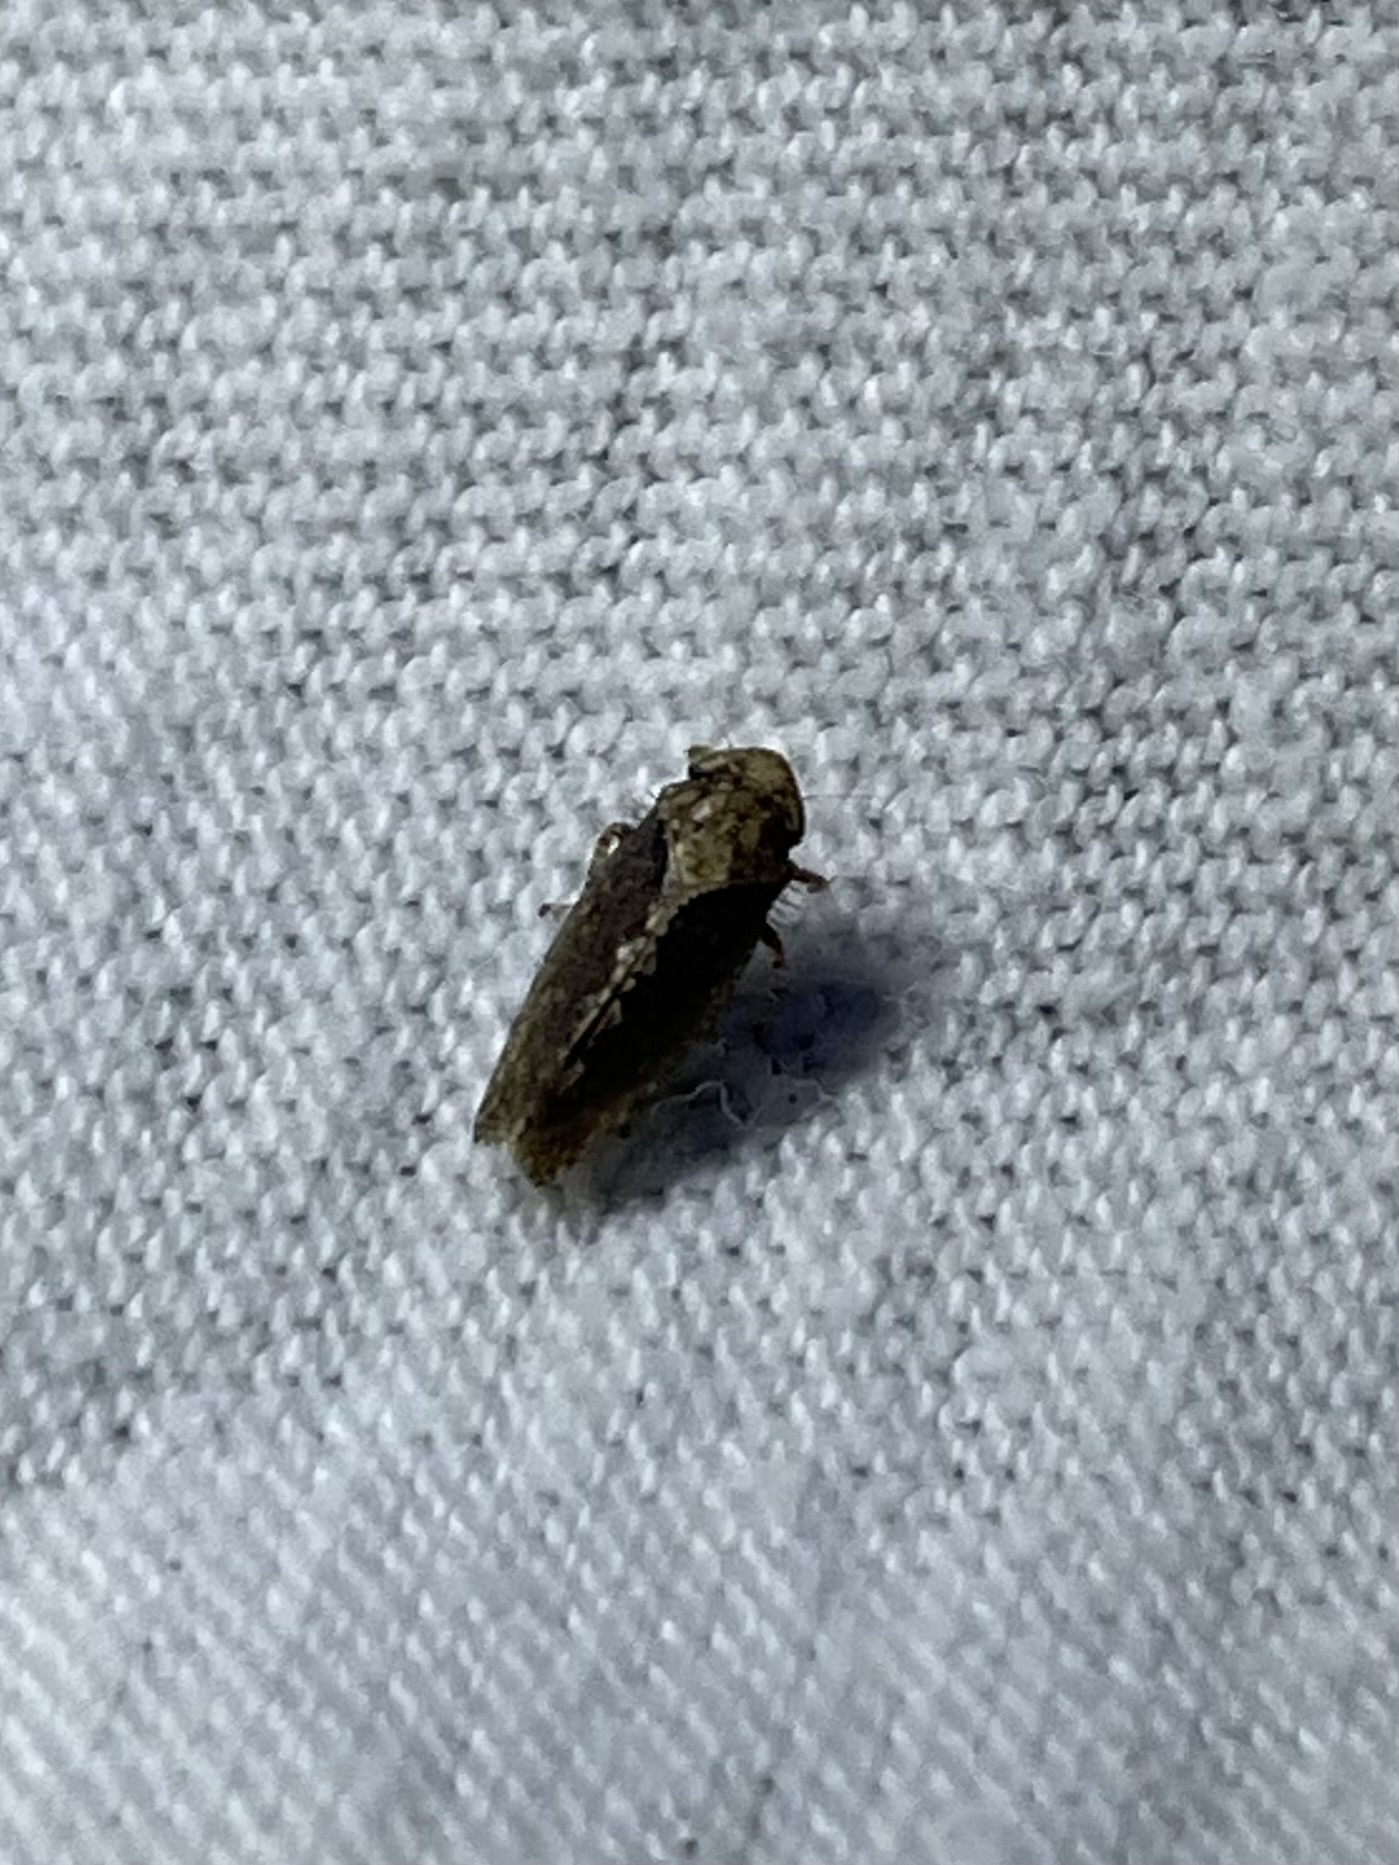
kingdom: Animalia
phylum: Arthropoda
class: Insecta
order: Hemiptera
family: Cicadellidae
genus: Excultanus
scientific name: Excultanus excultus
